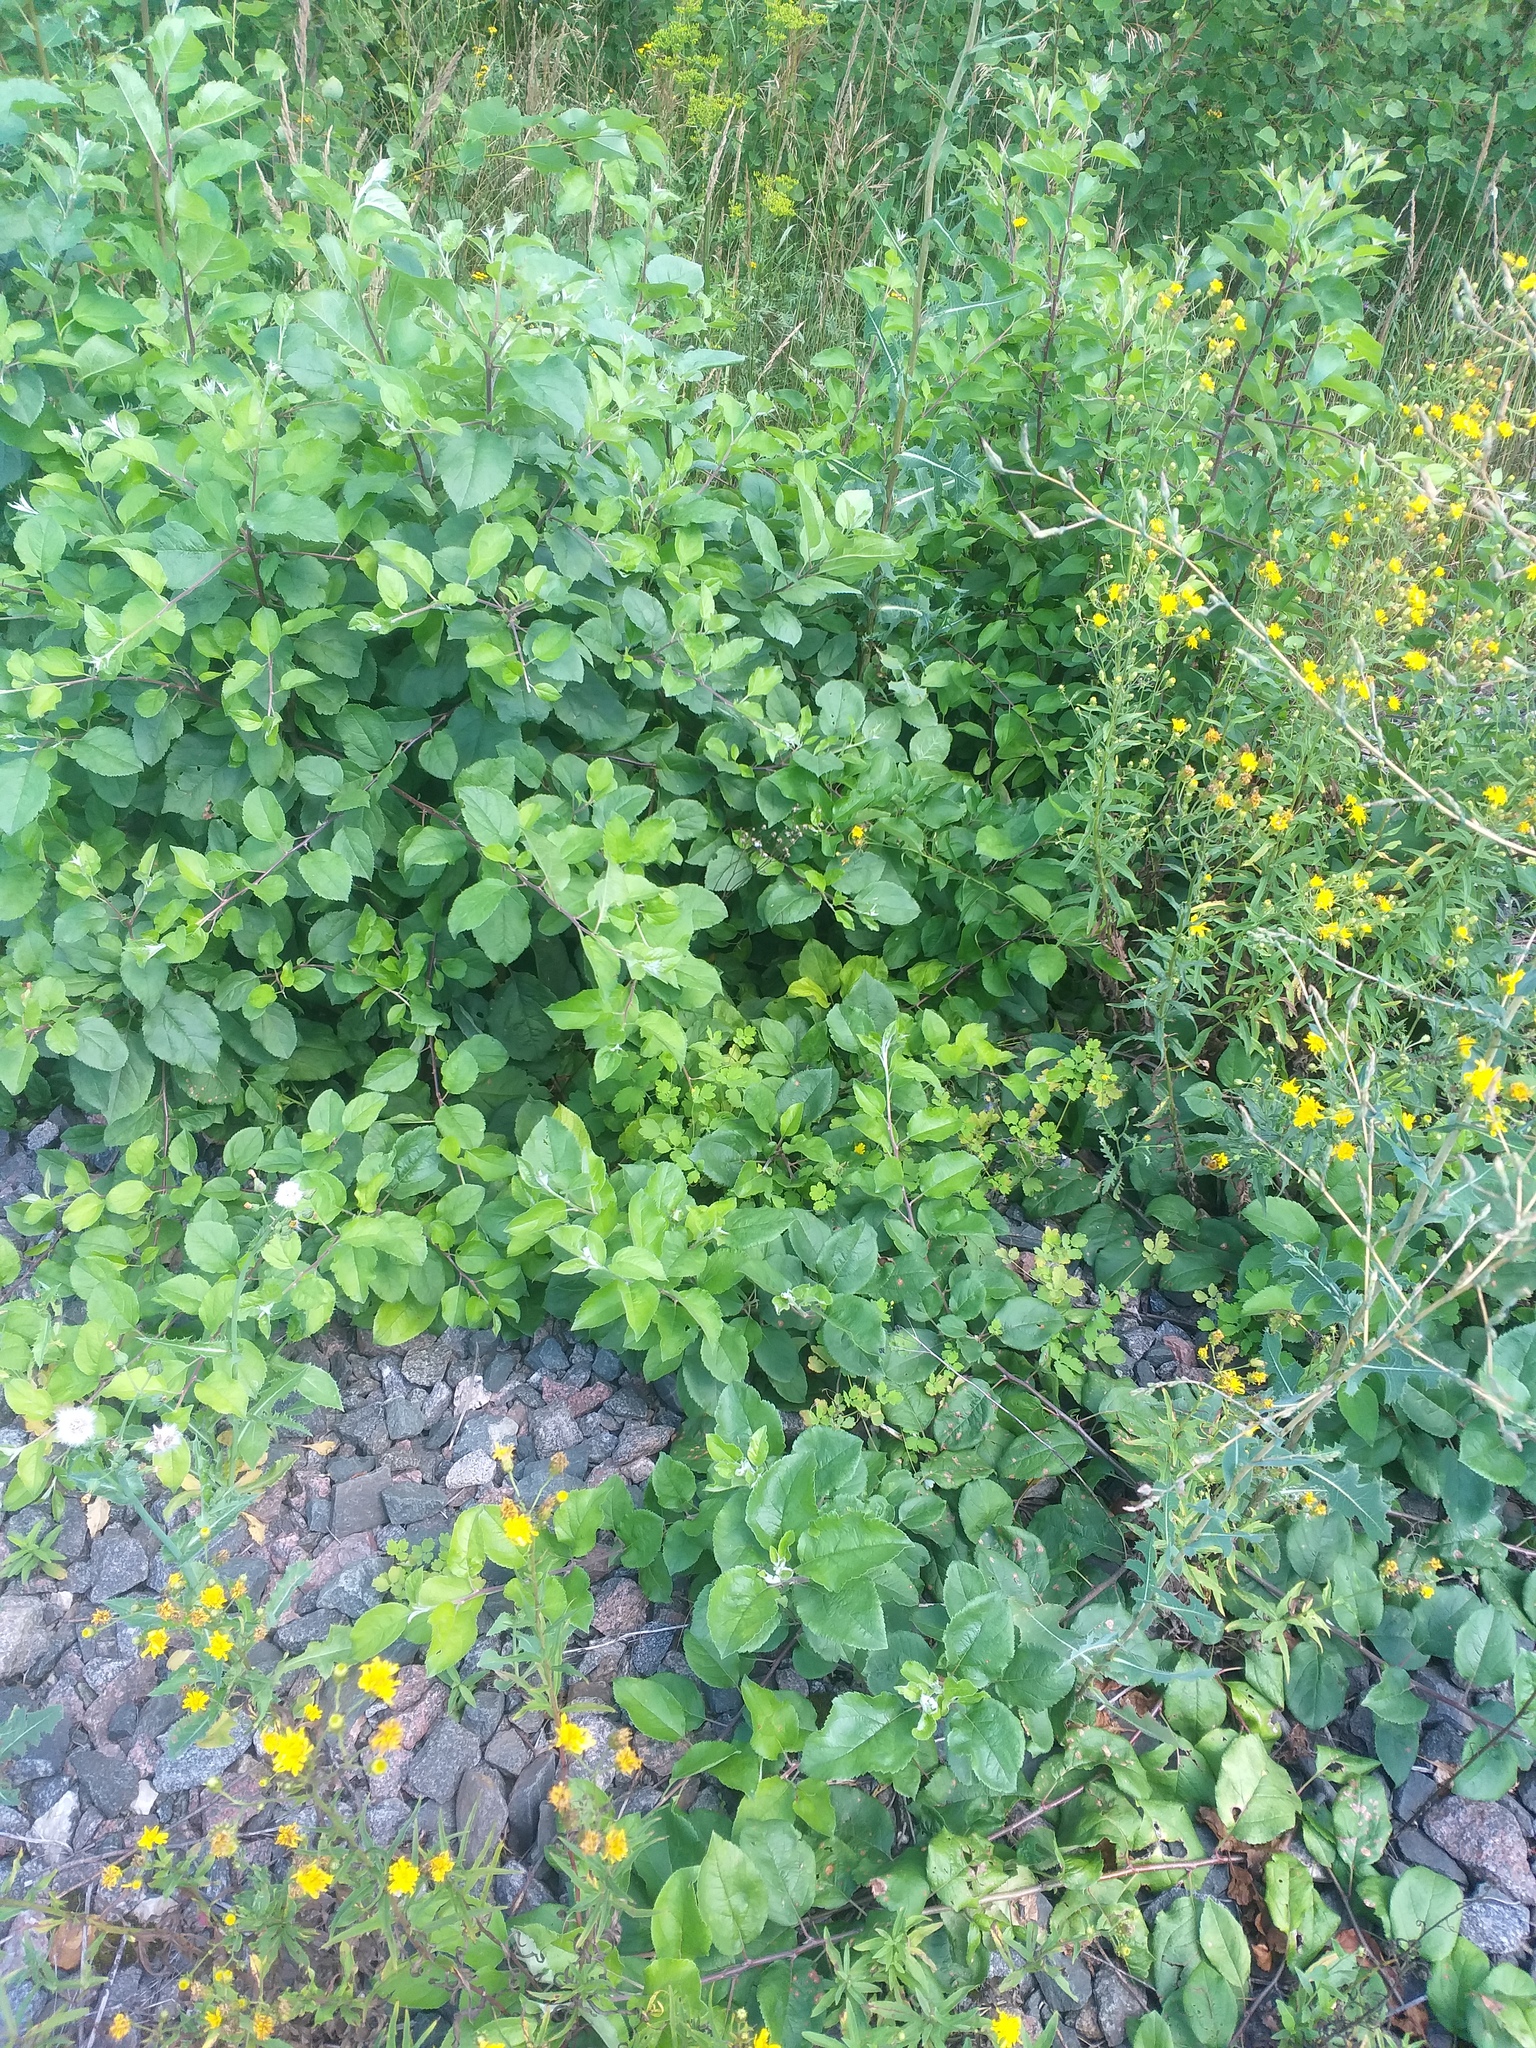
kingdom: Plantae
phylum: Tracheophyta
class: Magnoliopsida
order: Rosales
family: Rosaceae
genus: Malus
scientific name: Malus domestica
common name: Apple
